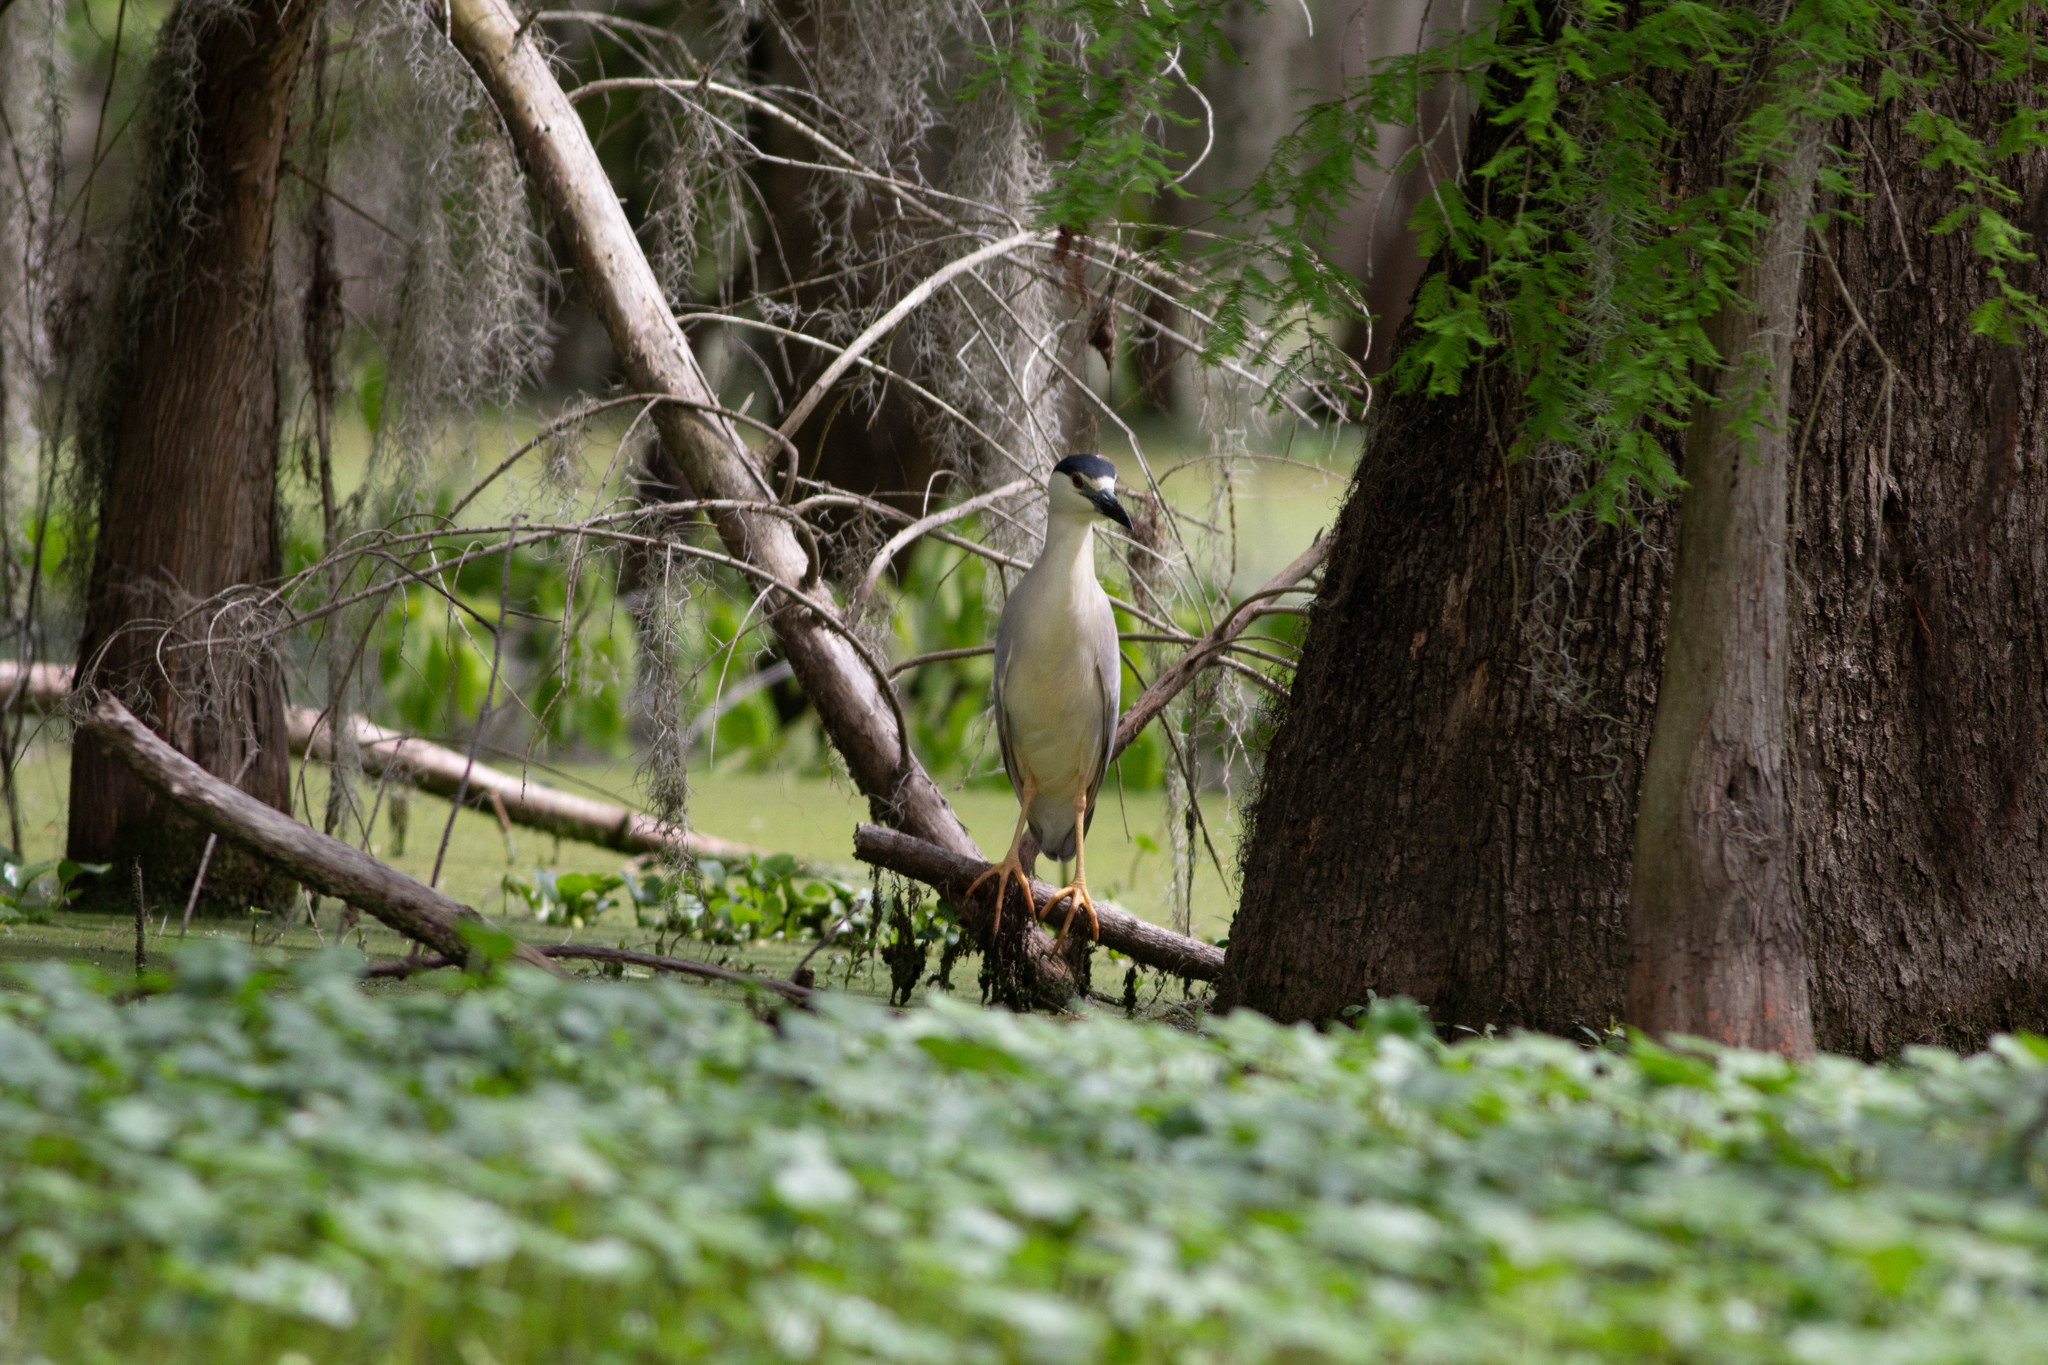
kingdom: Animalia
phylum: Chordata
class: Aves
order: Pelecaniformes
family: Ardeidae
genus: Nycticorax
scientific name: Nycticorax nycticorax
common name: Black-crowned night heron
